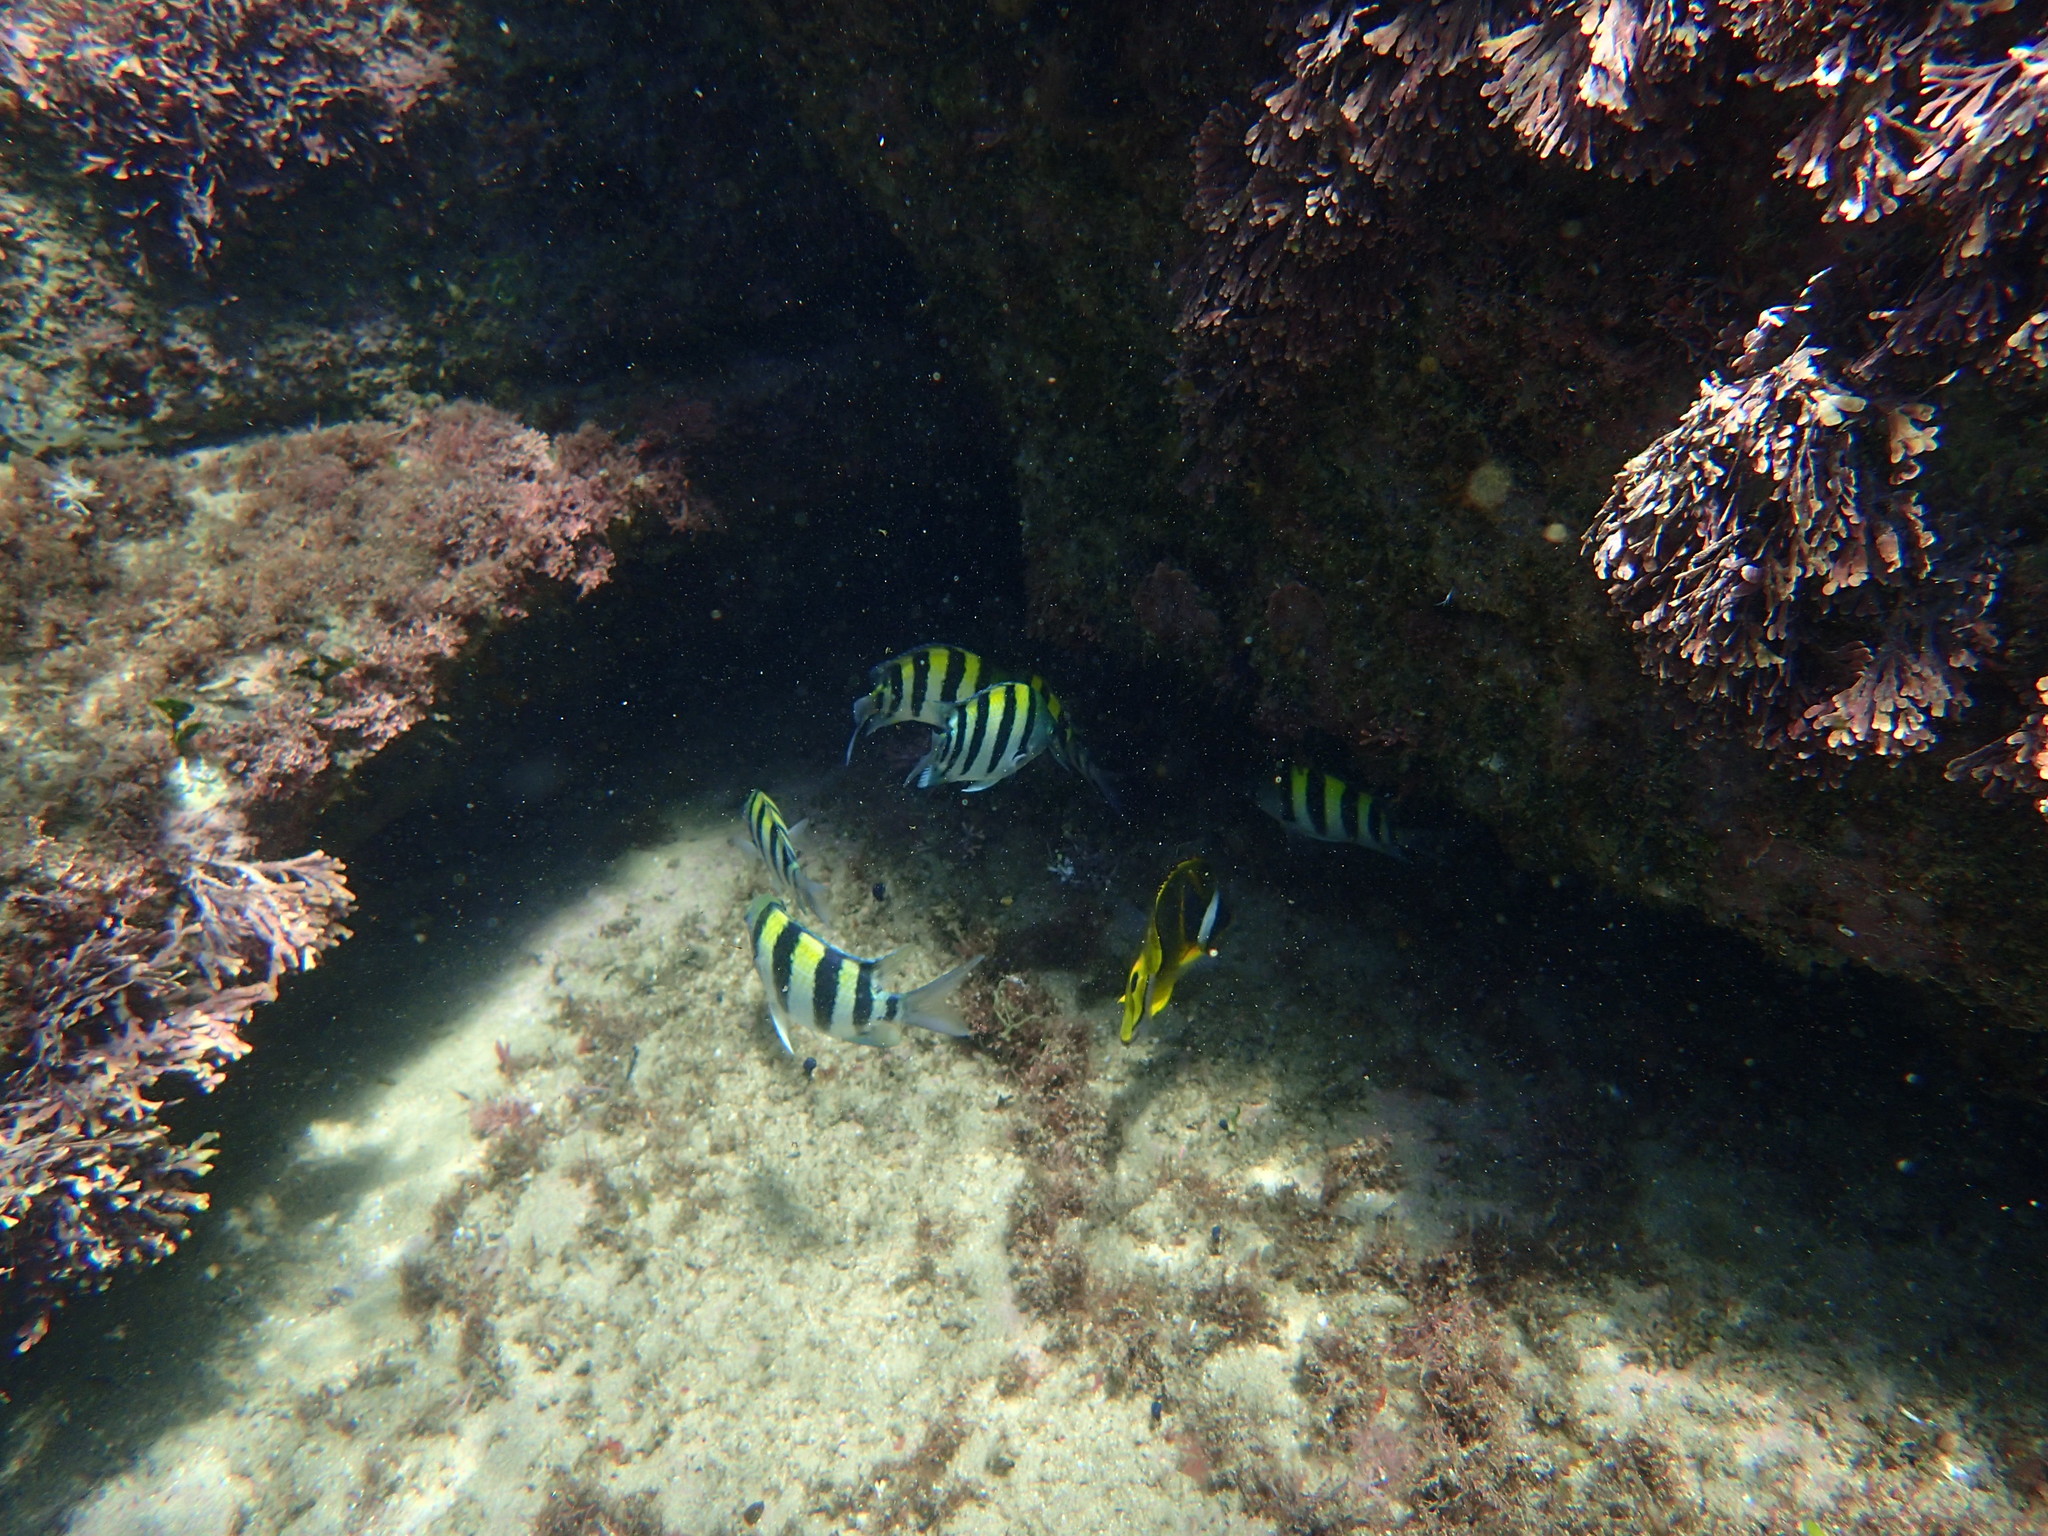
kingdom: Animalia
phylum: Chordata
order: Perciformes
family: Pomacentridae
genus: Abudefduf
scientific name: Abudefduf vaigiensis
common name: Indo-pacific sergeant
